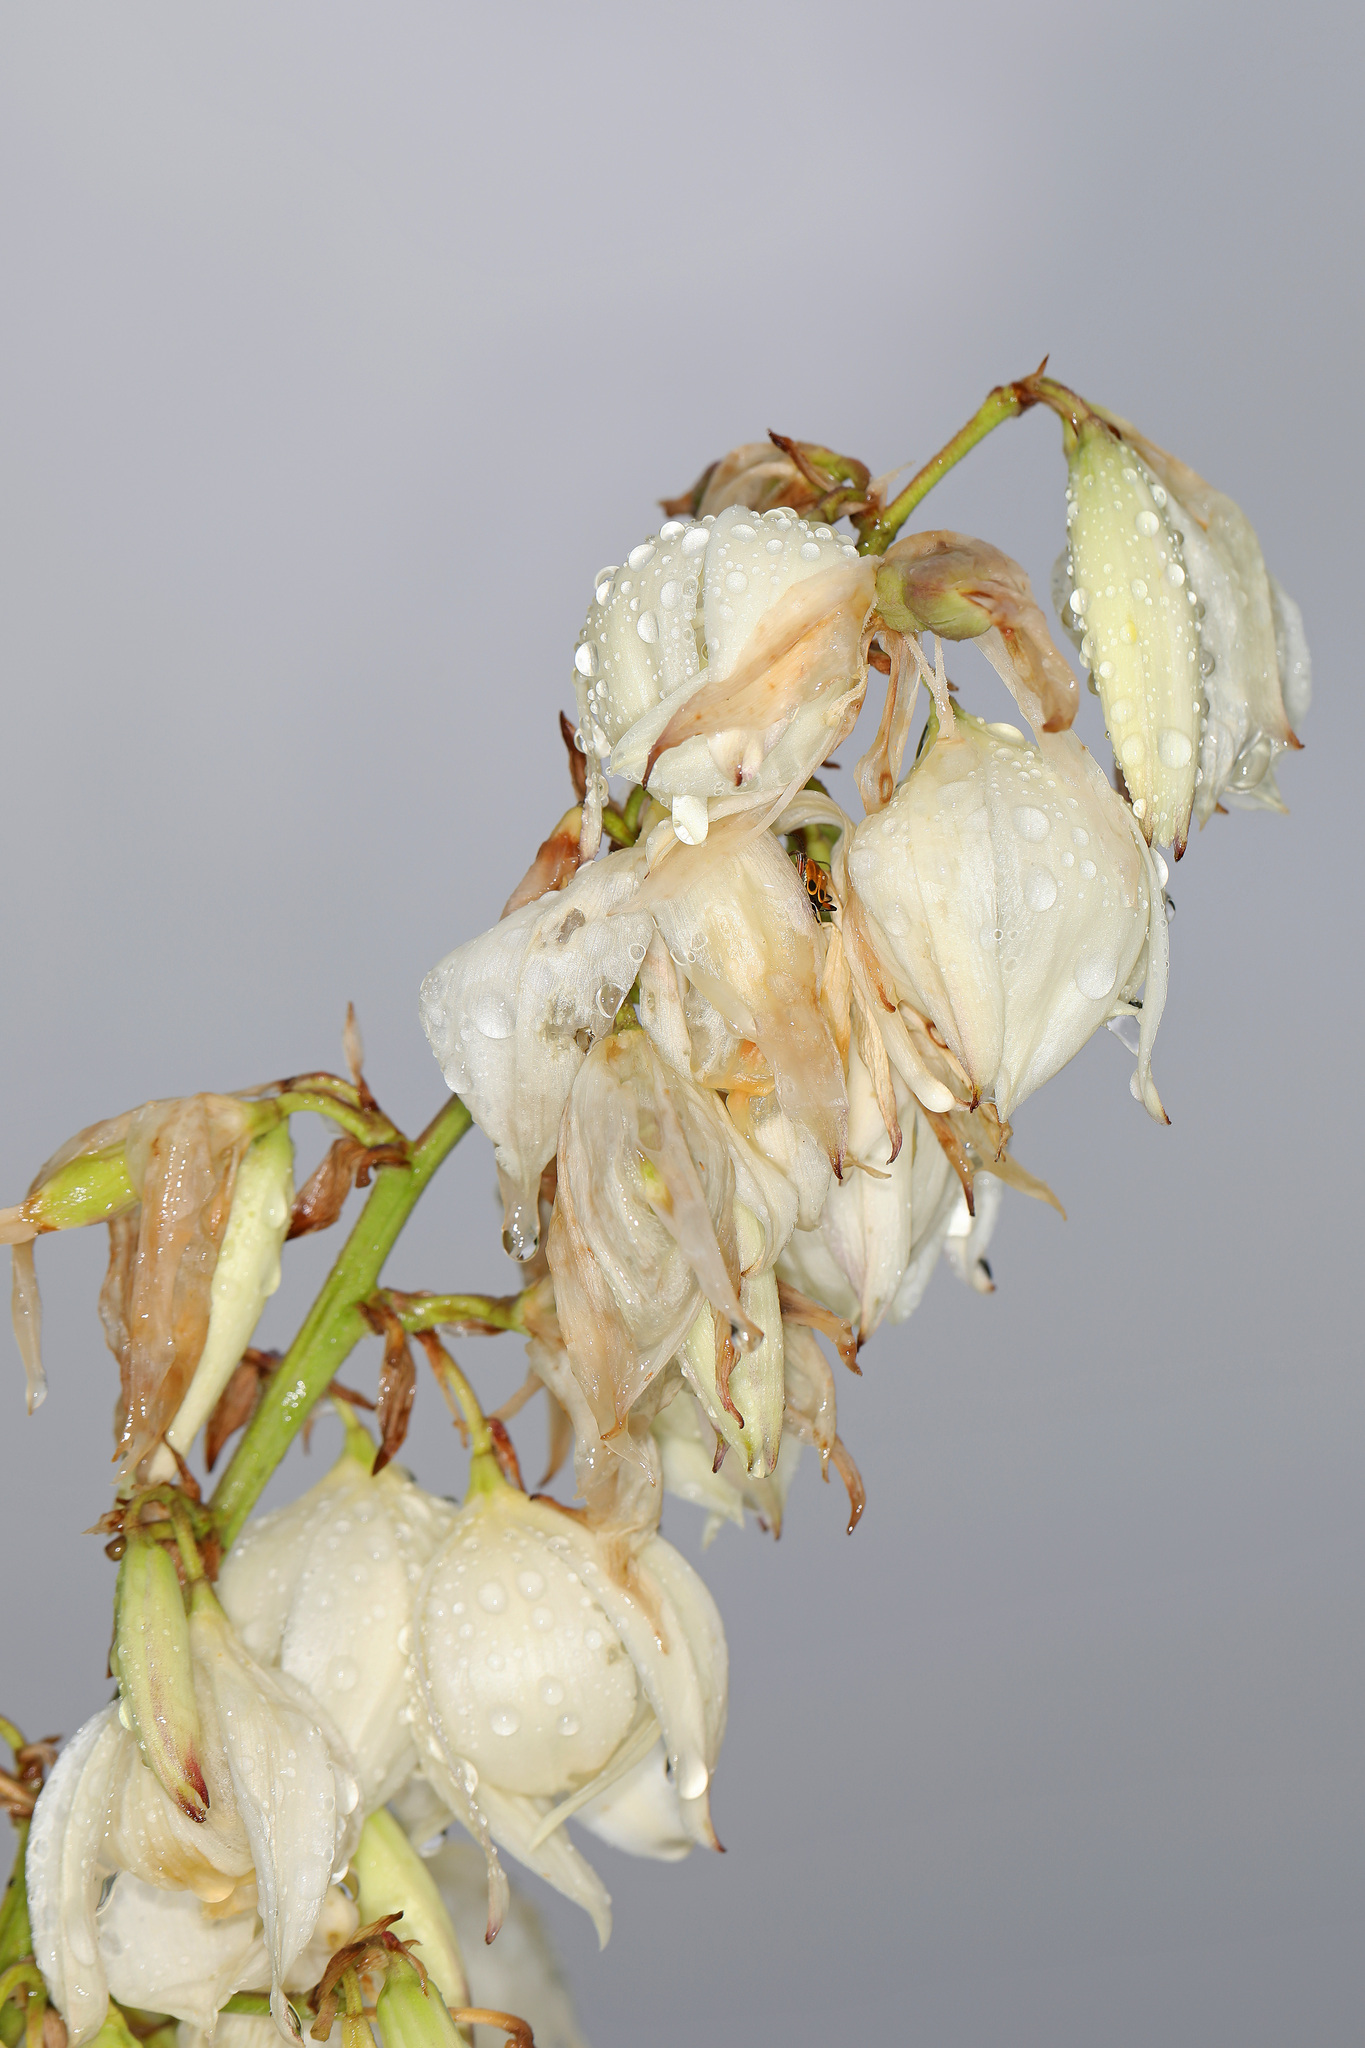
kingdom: Plantae
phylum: Tracheophyta
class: Liliopsida
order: Asparagales
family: Asparagaceae
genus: Yucca
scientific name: Yucca filamentosa
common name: Adam's-needle
